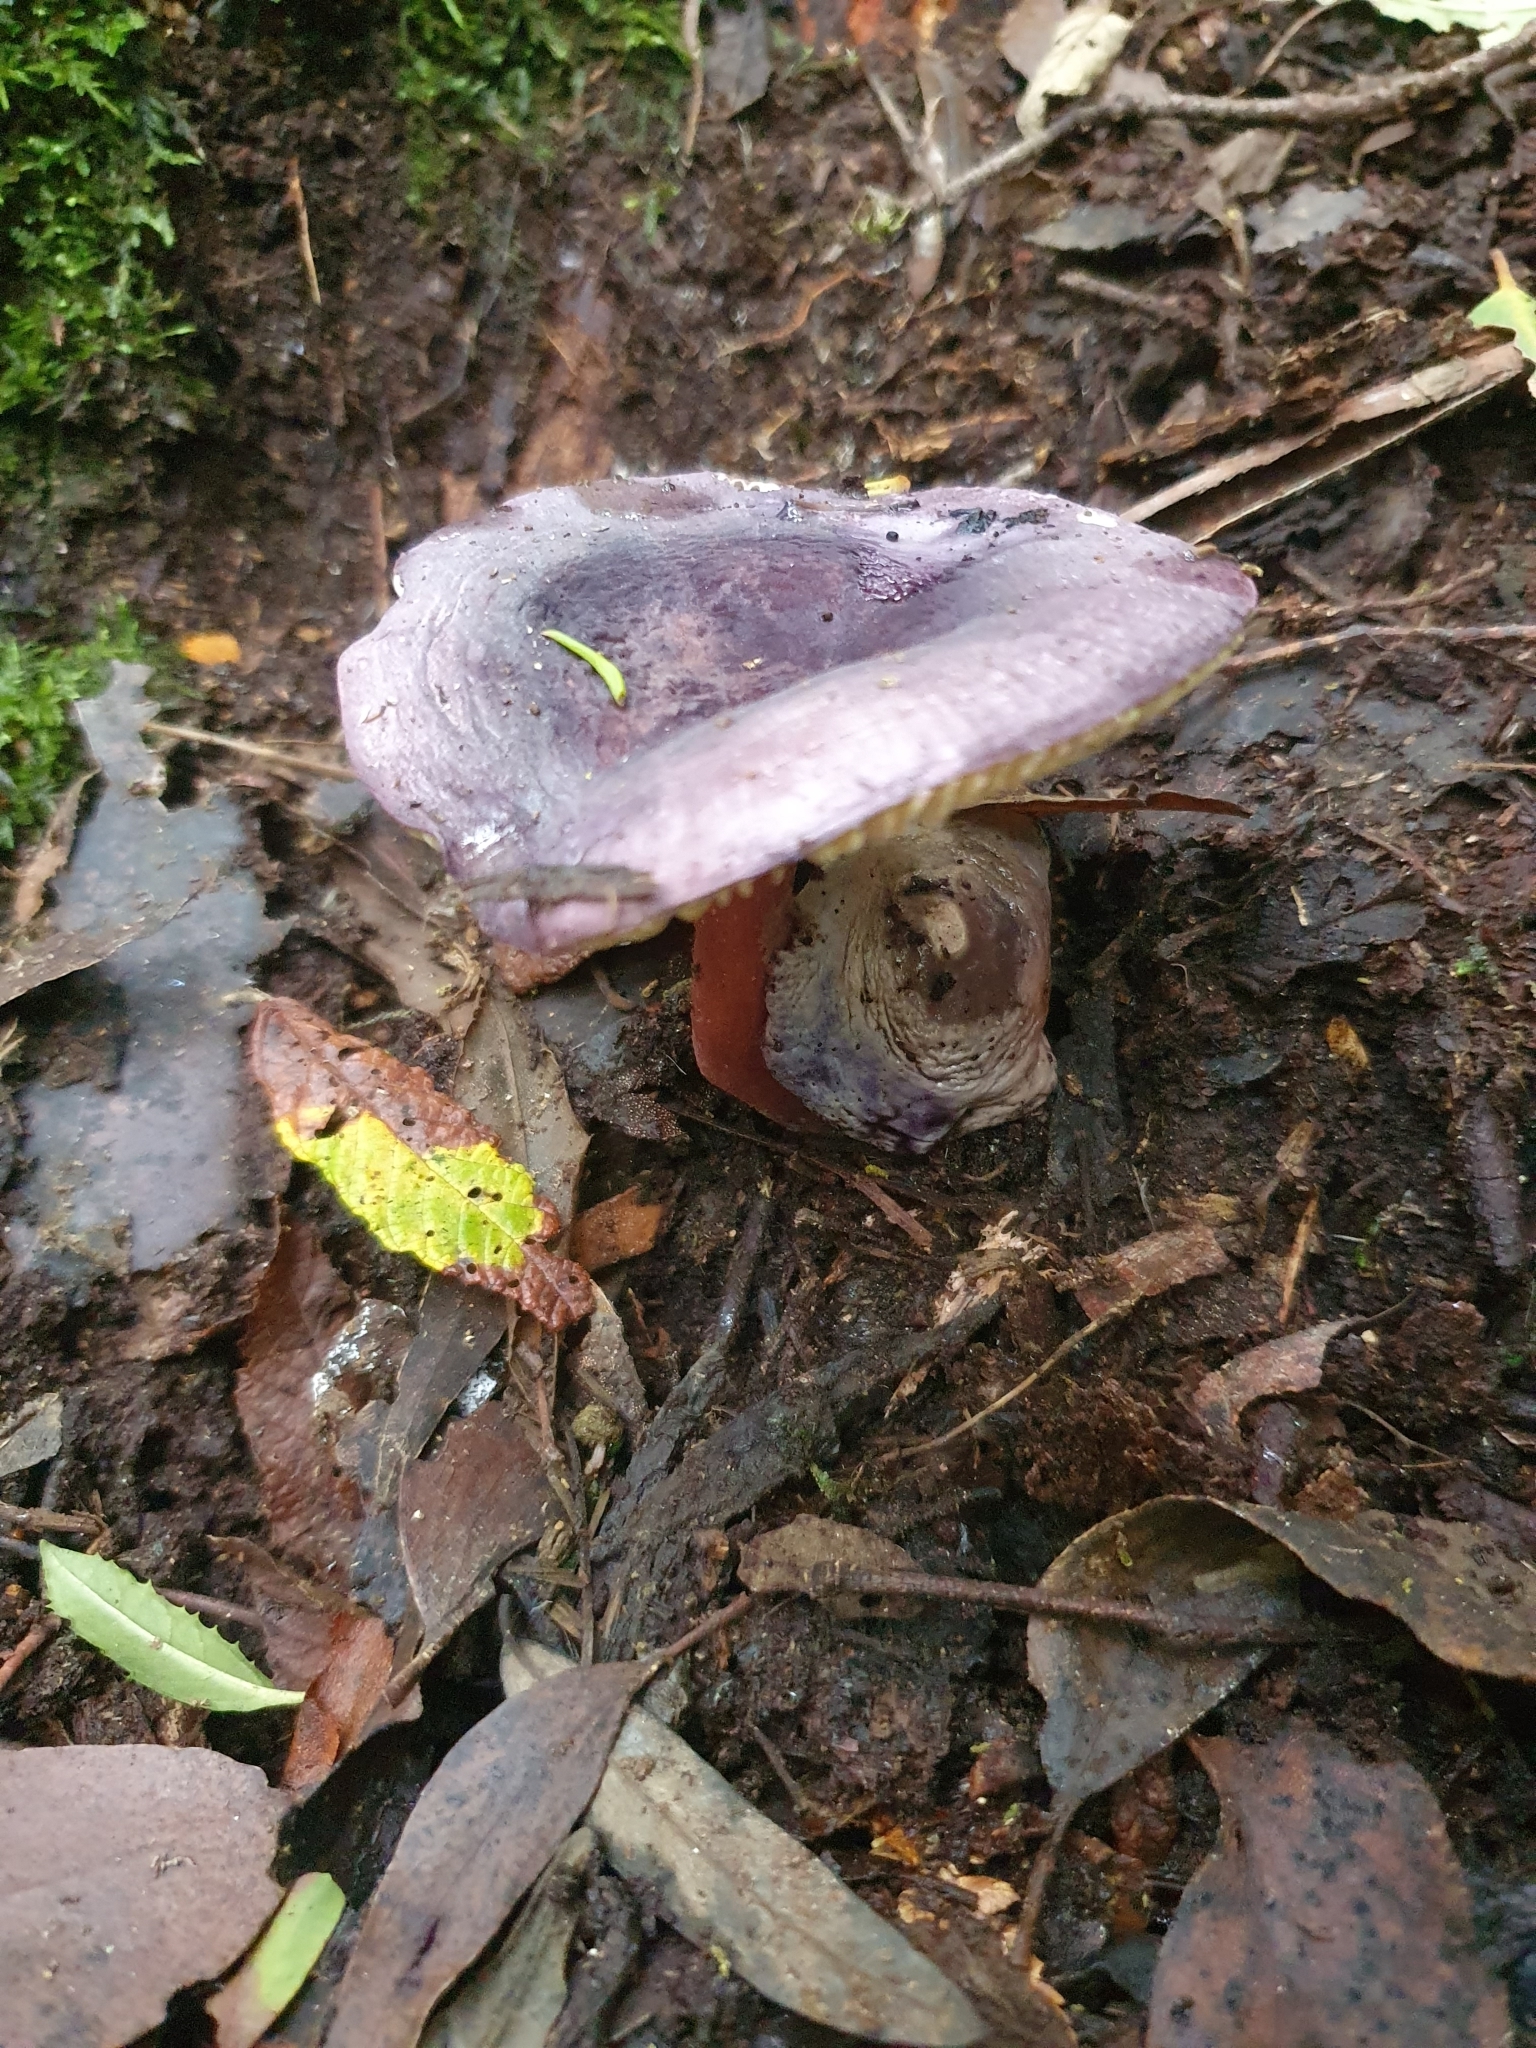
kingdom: Fungi
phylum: Basidiomycota
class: Agaricomycetes
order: Russulales
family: Russulaceae
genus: Russula
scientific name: Russula lenkunya
